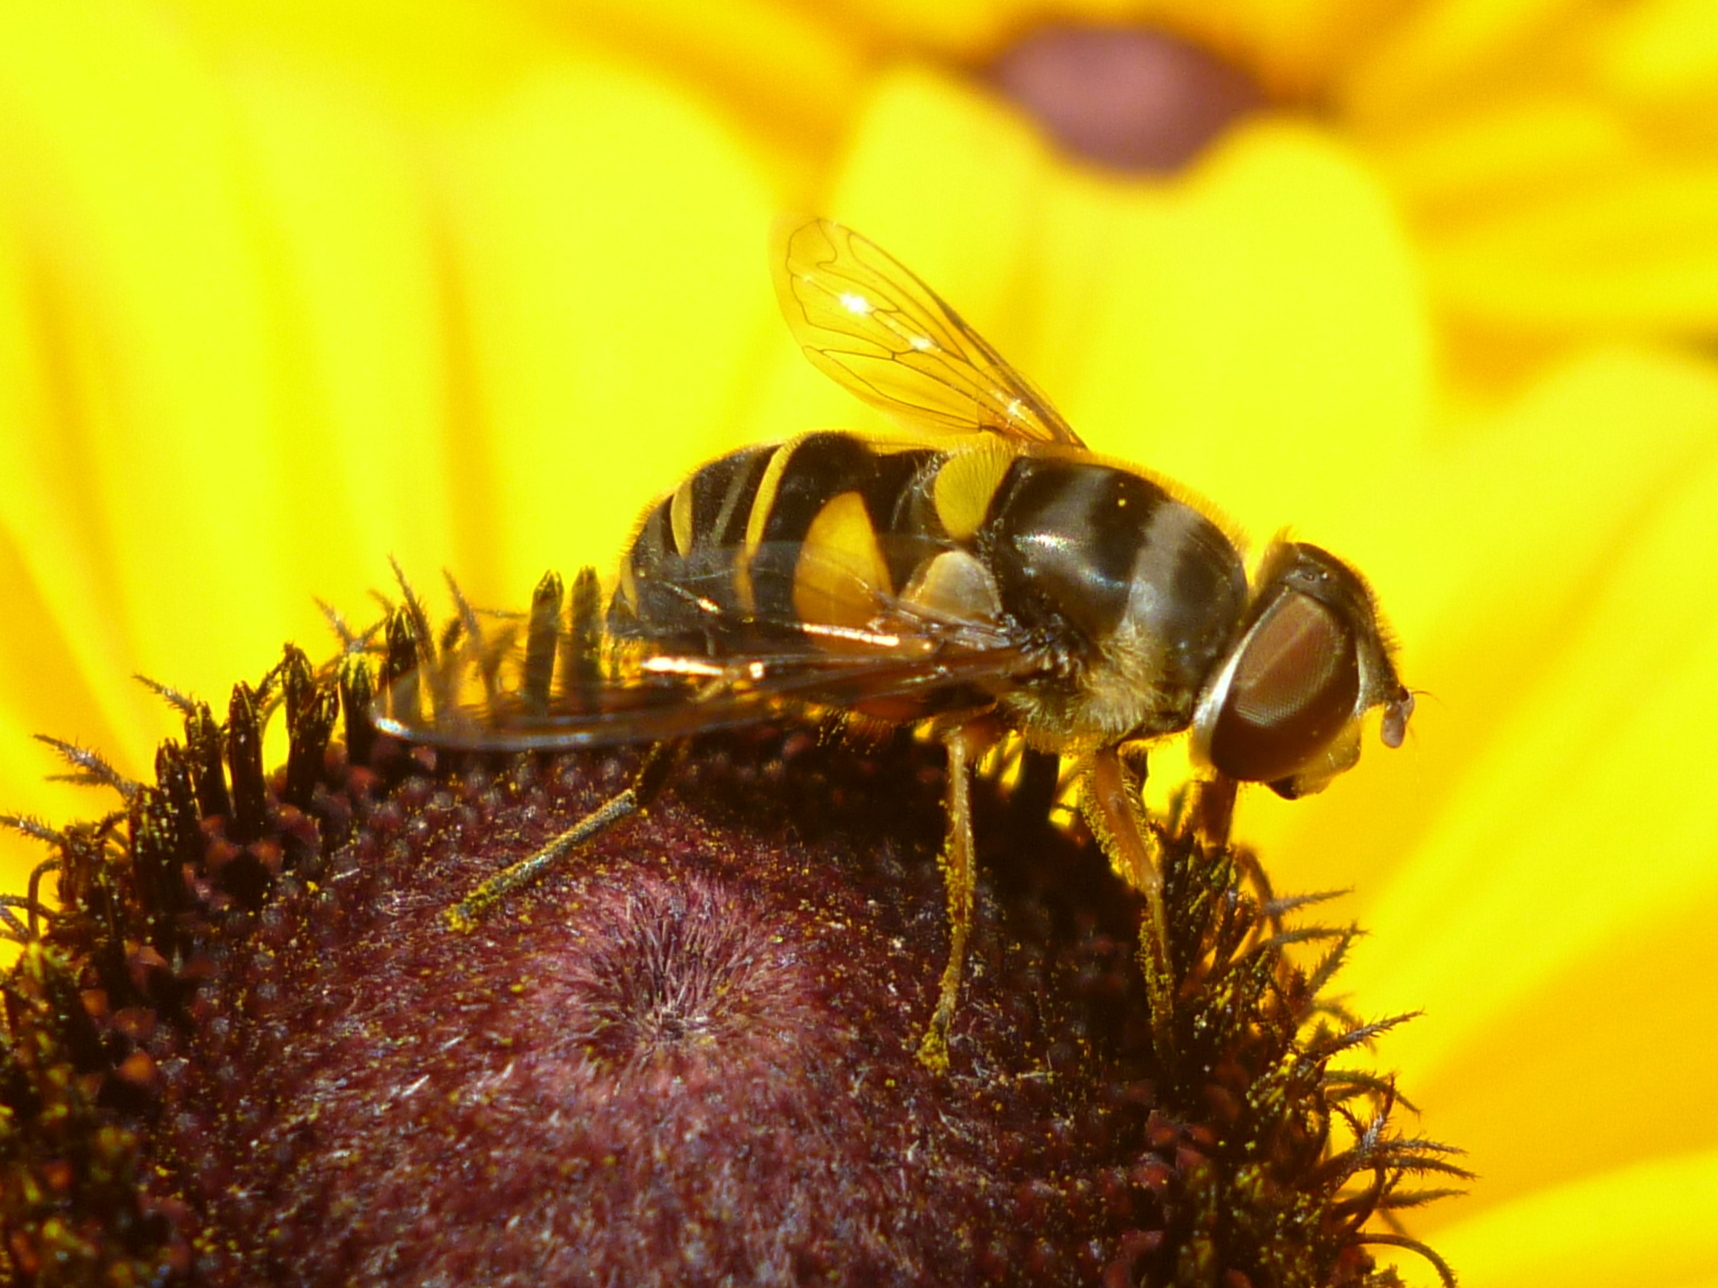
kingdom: Animalia
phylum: Arthropoda
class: Insecta
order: Diptera
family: Syrphidae
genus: Eristalis
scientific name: Eristalis transversa
